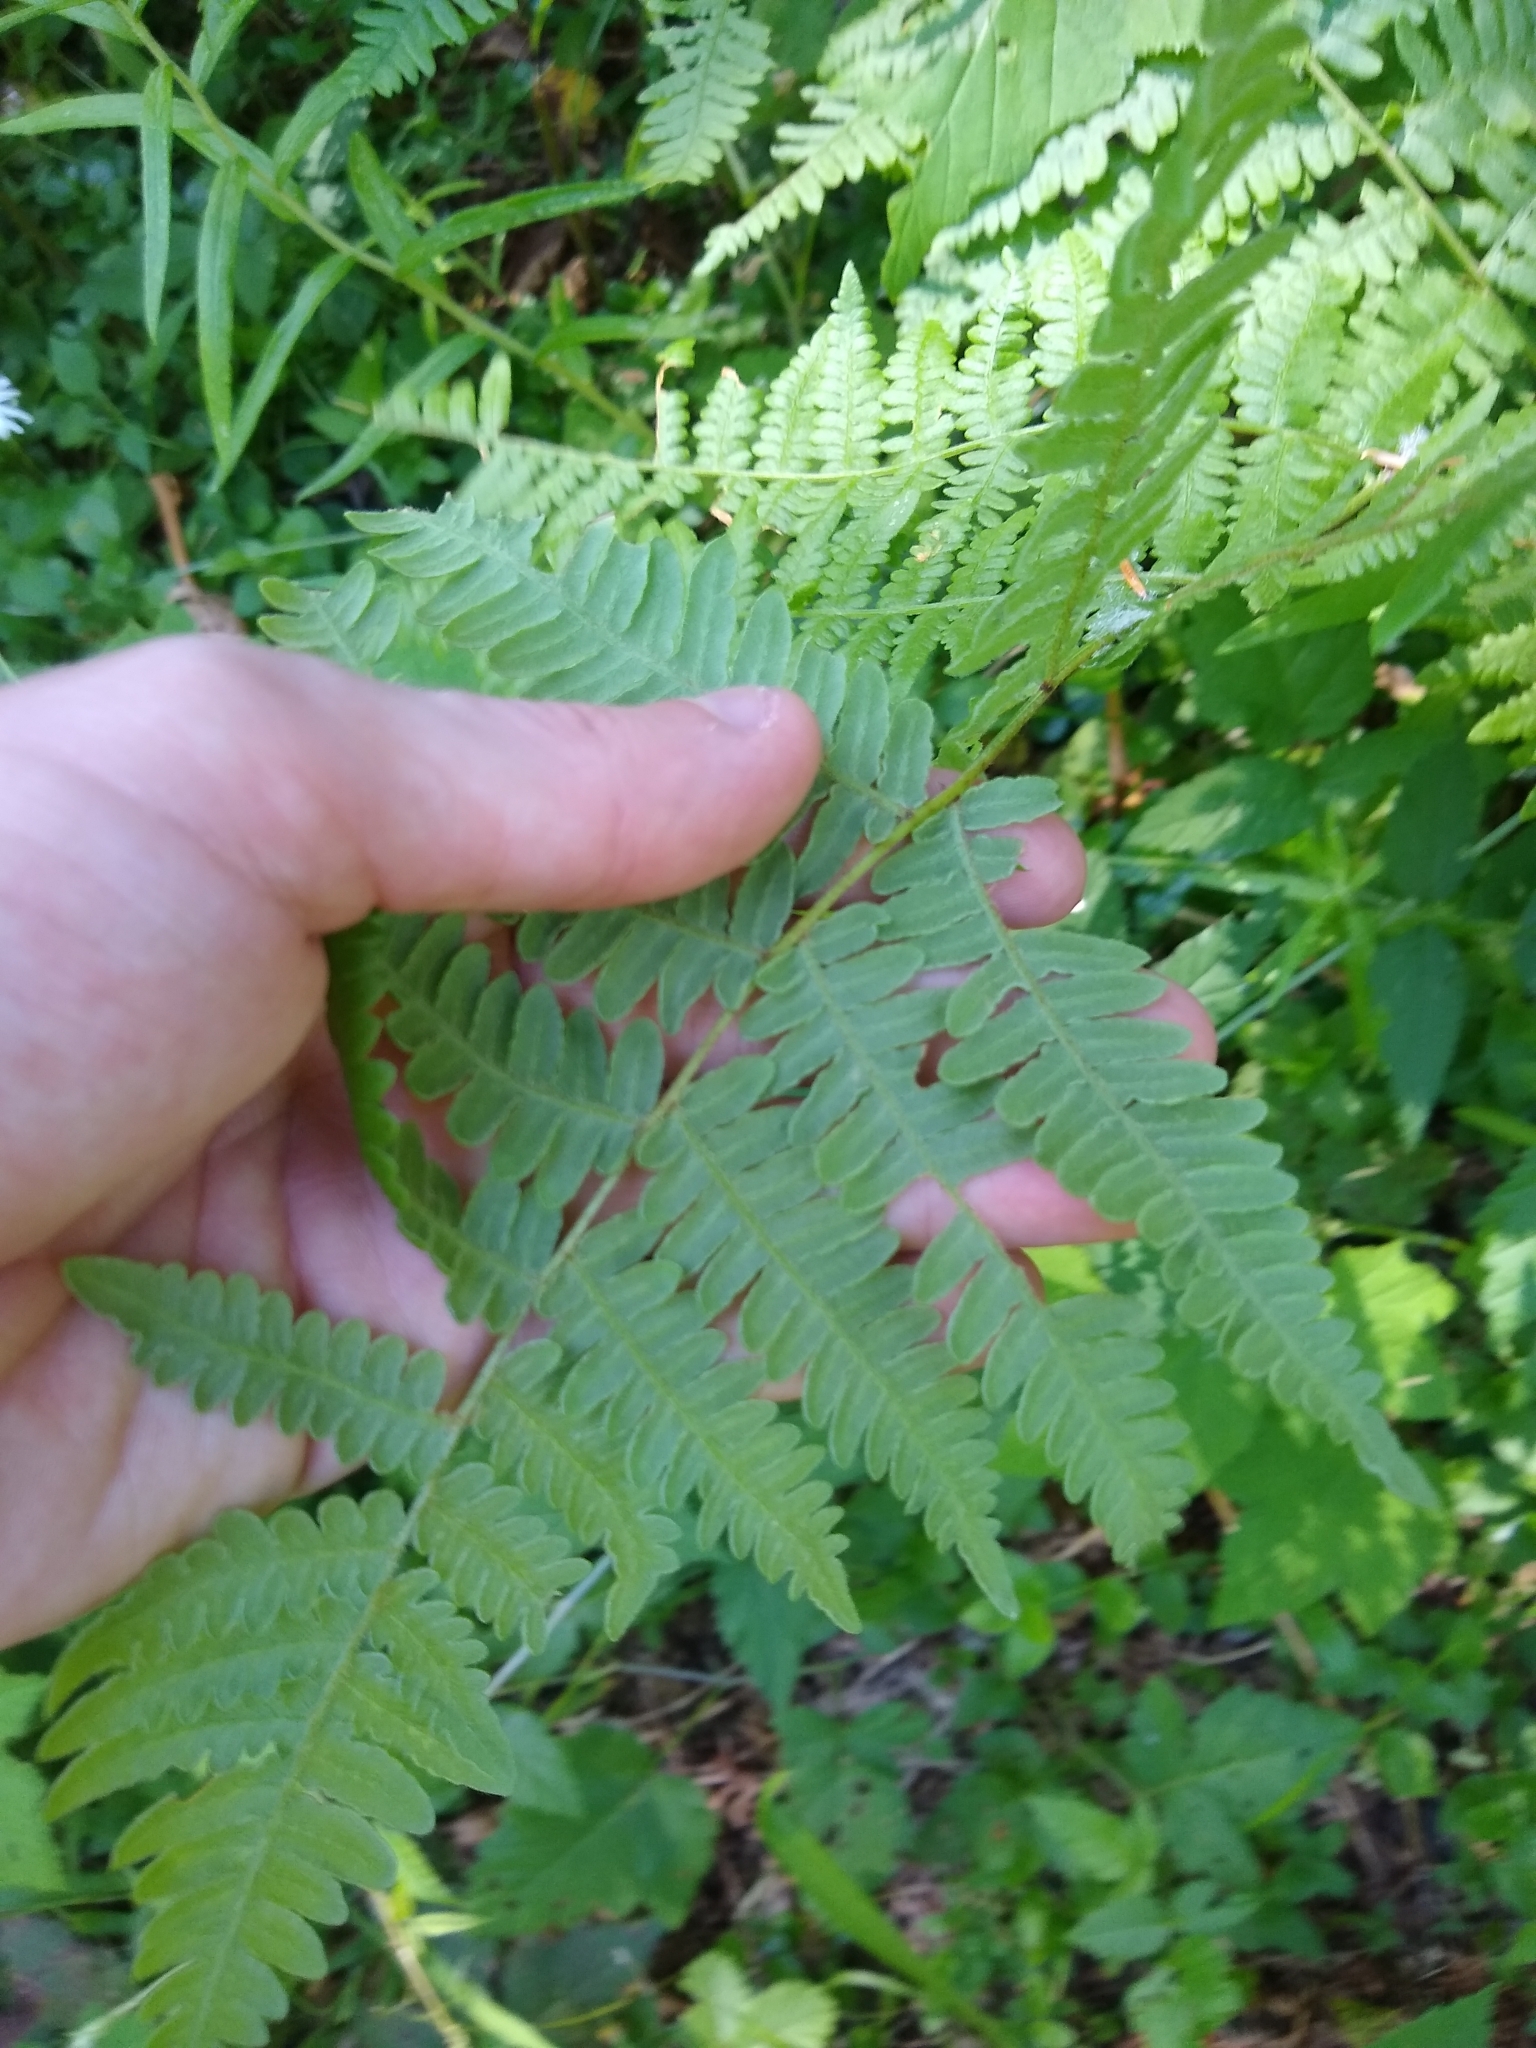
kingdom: Plantae
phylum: Tracheophyta
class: Polypodiopsida
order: Polypodiales
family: Dennstaedtiaceae
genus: Pteridium
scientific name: Pteridium aquilinum
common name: Bracken
